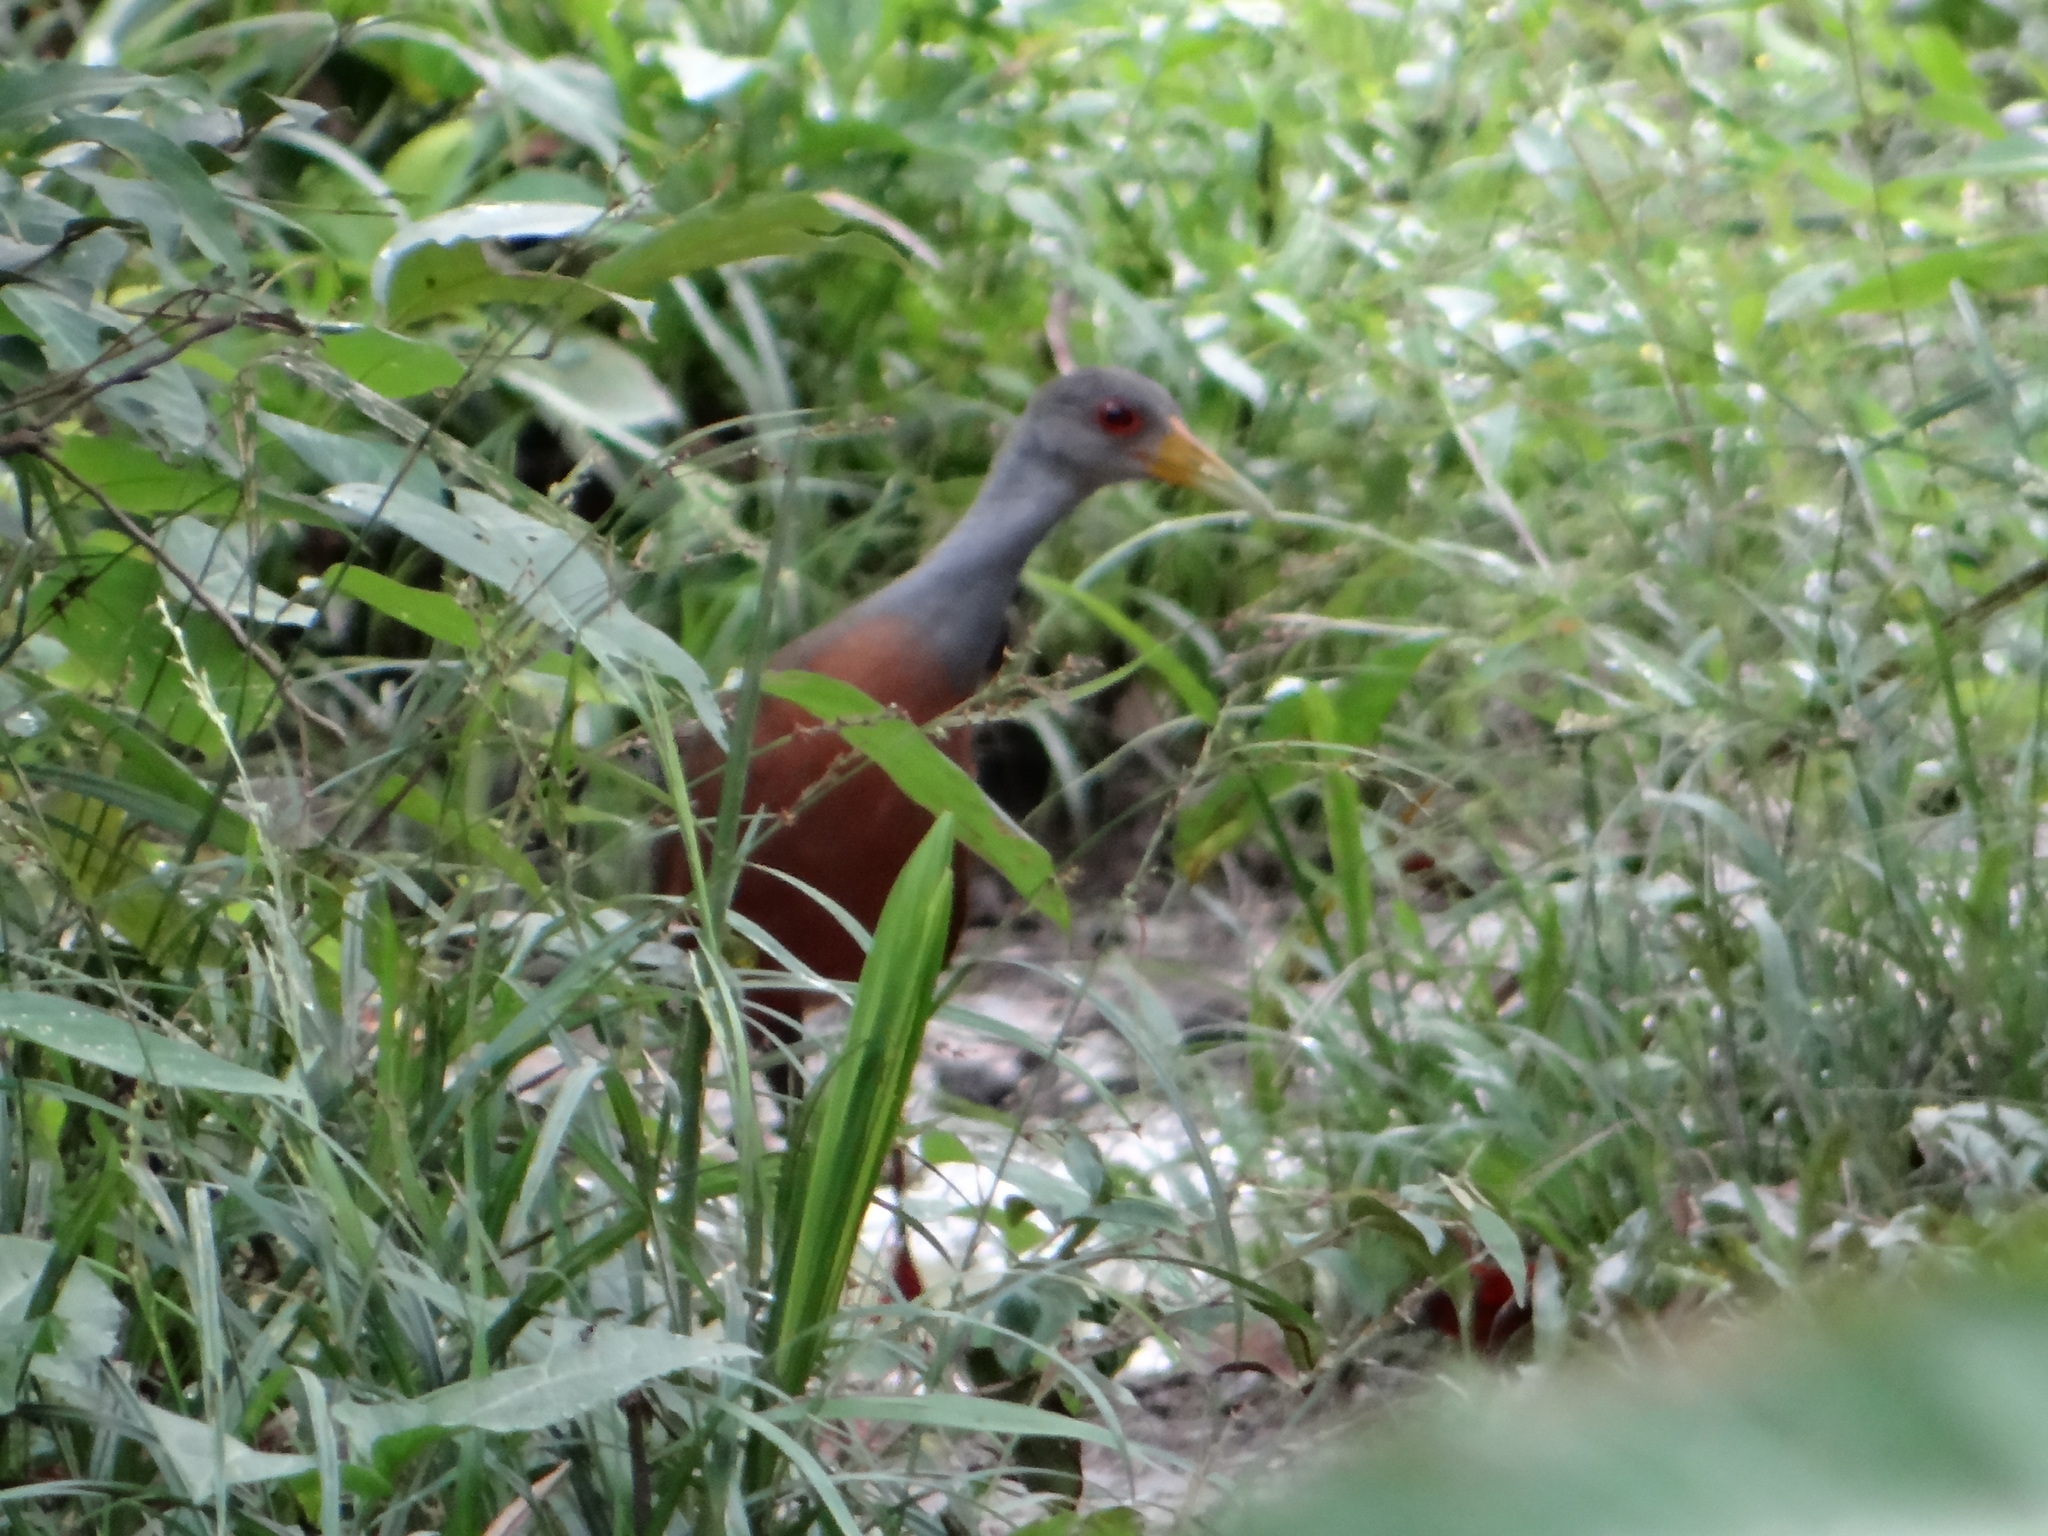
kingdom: Animalia
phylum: Chordata
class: Aves
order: Gruiformes
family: Rallidae
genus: Aramides
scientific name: Aramides cajanea
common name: Gray-necked wood-rail
